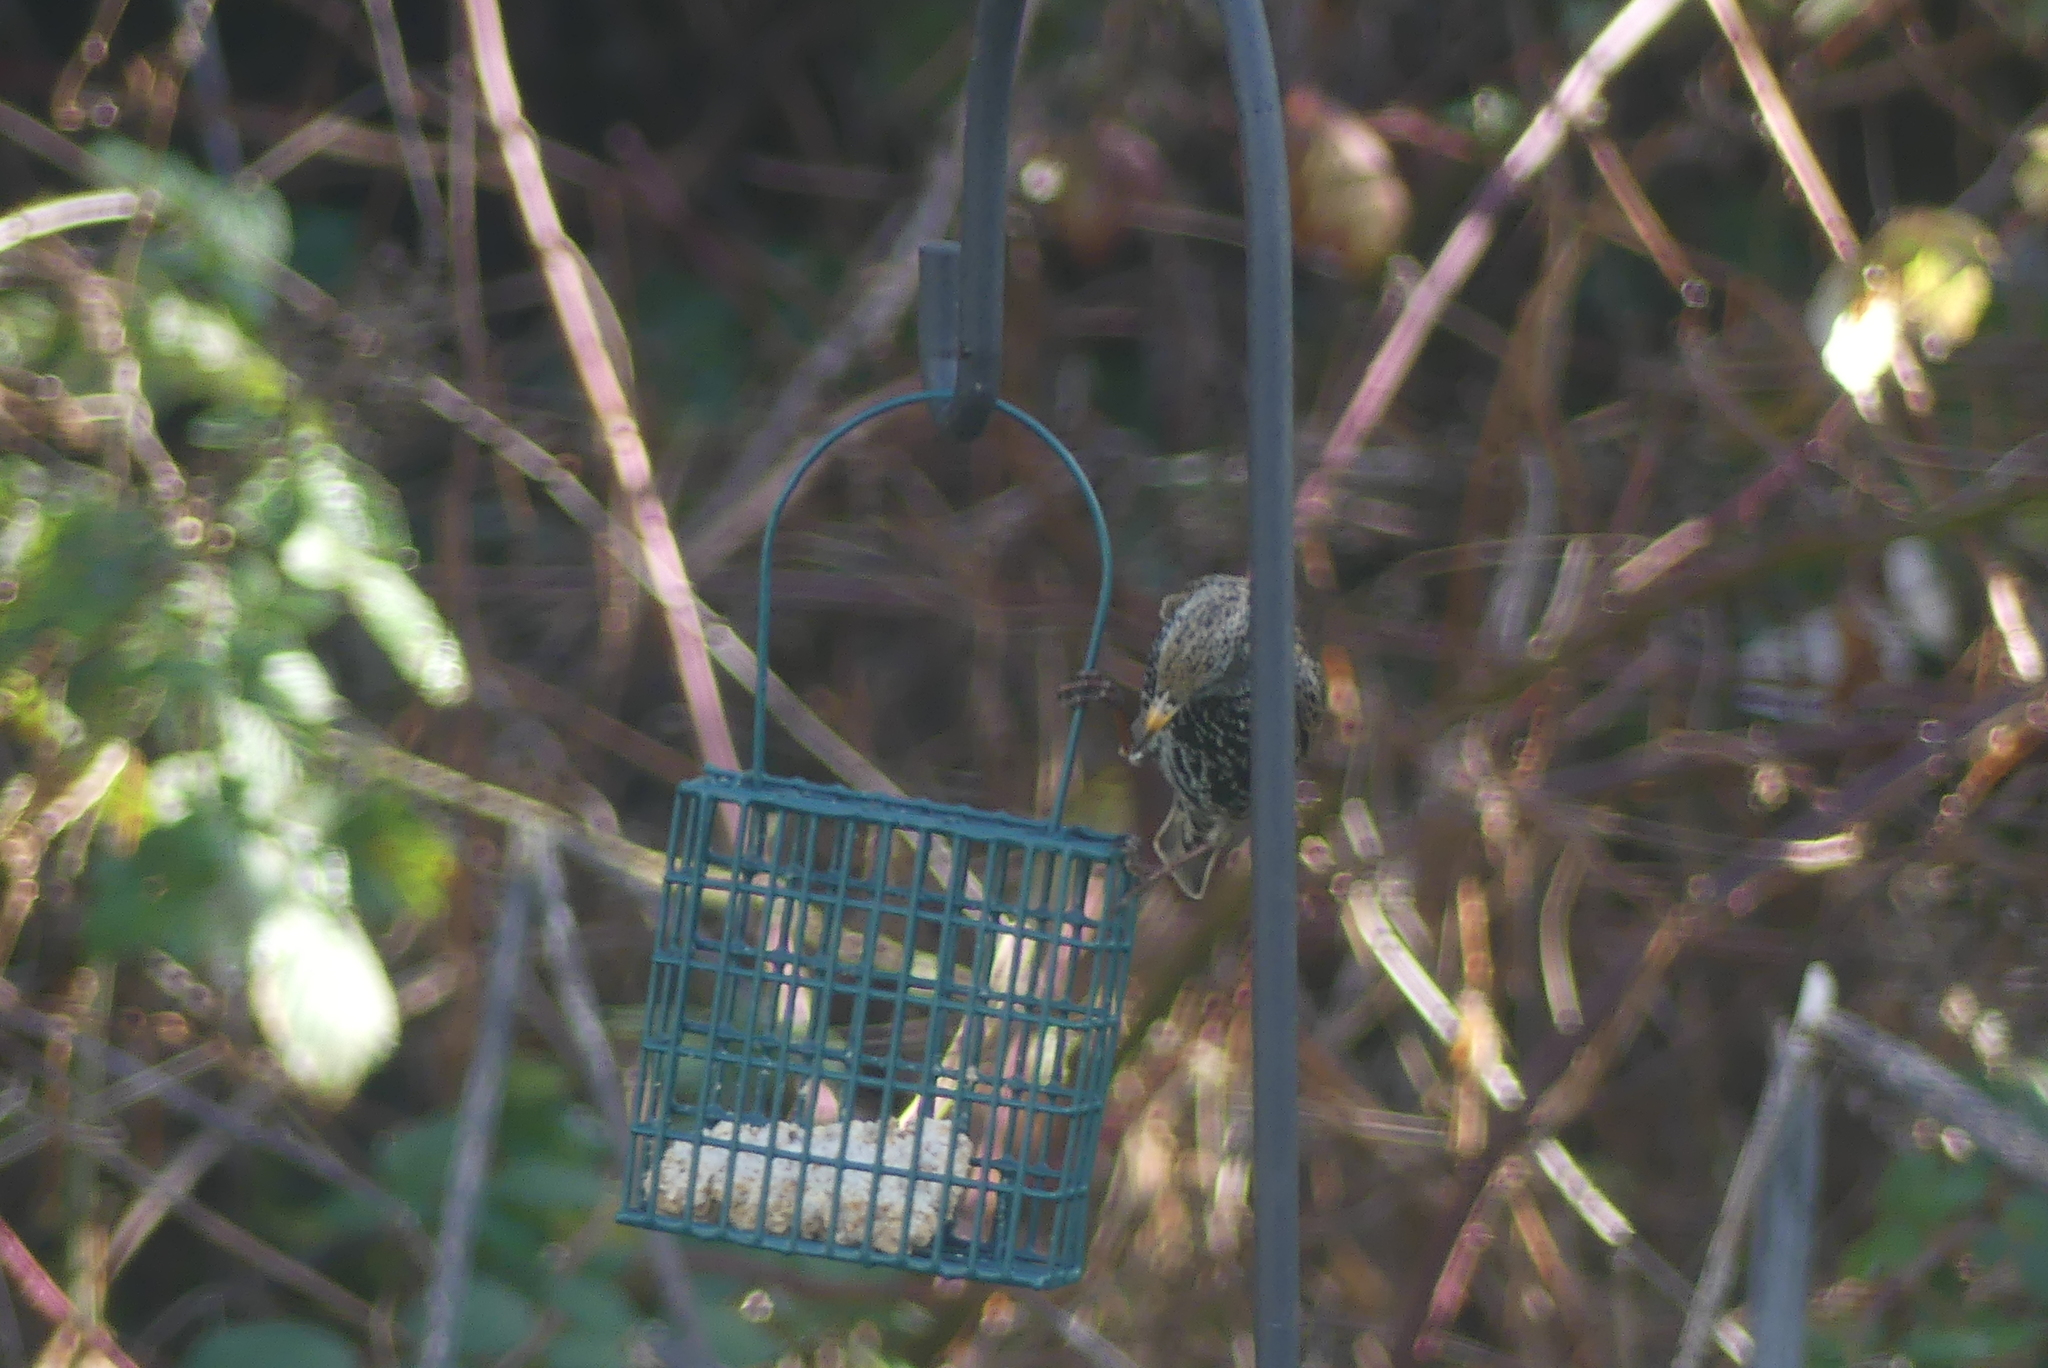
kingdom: Animalia
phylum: Chordata
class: Aves
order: Passeriformes
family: Sturnidae
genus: Sturnus
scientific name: Sturnus vulgaris
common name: Common starling
